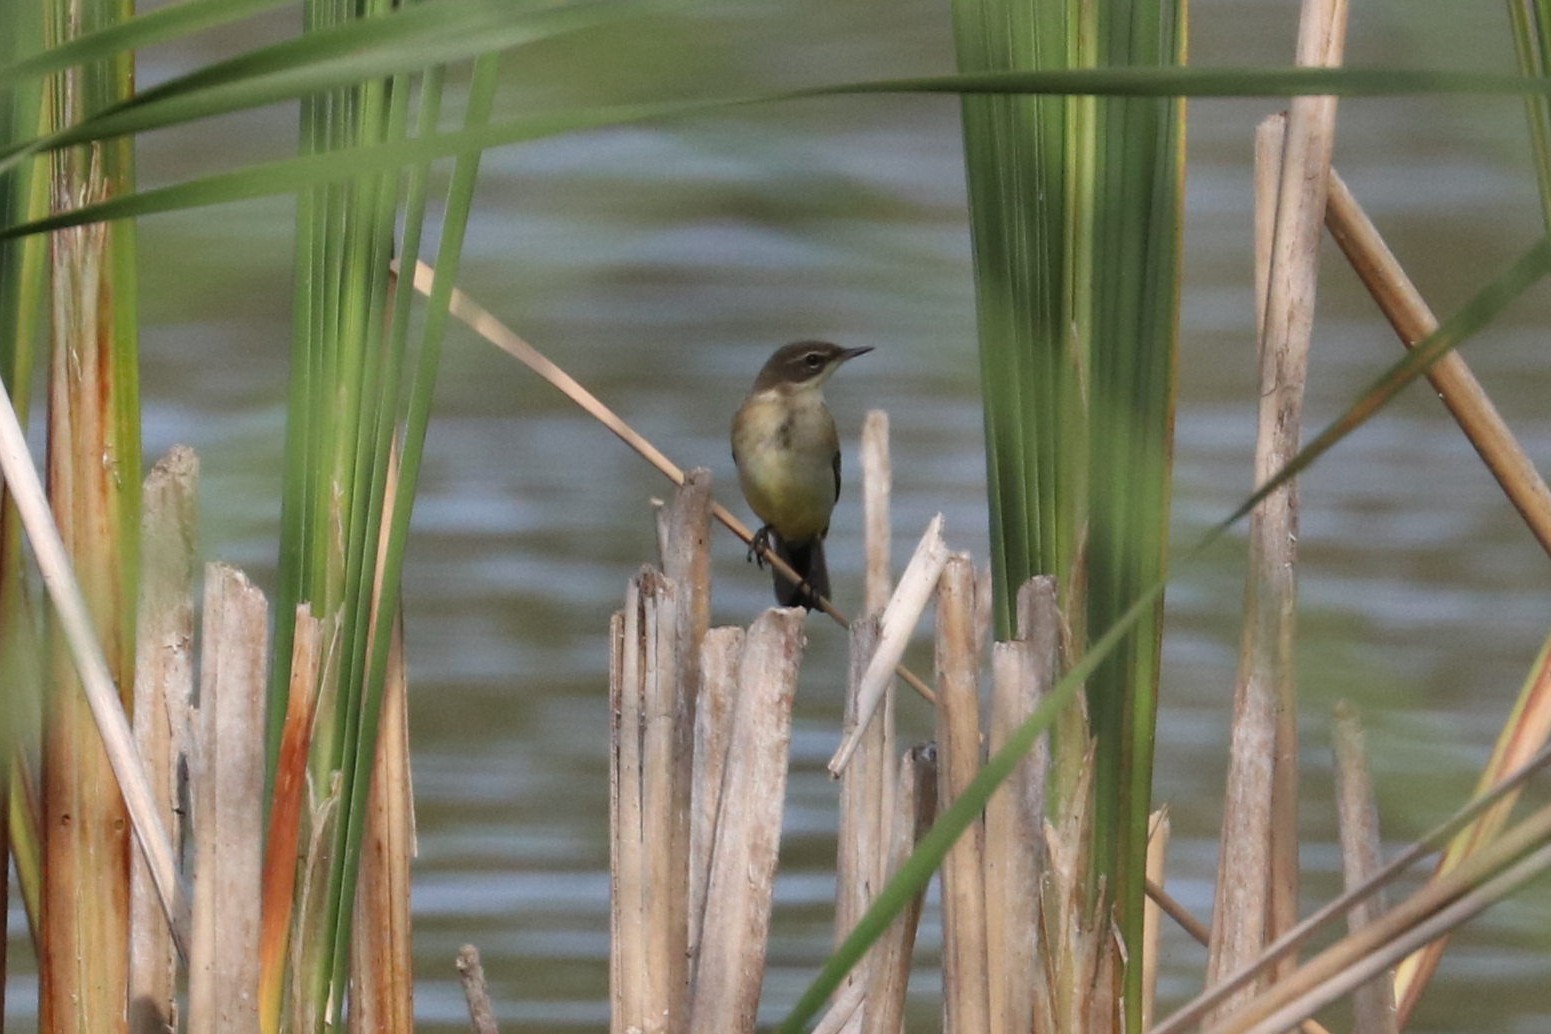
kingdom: Animalia
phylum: Chordata
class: Aves
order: Passeriformes
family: Motacillidae
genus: Motacilla
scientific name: Motacilla flava
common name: Western yellow wagtail
